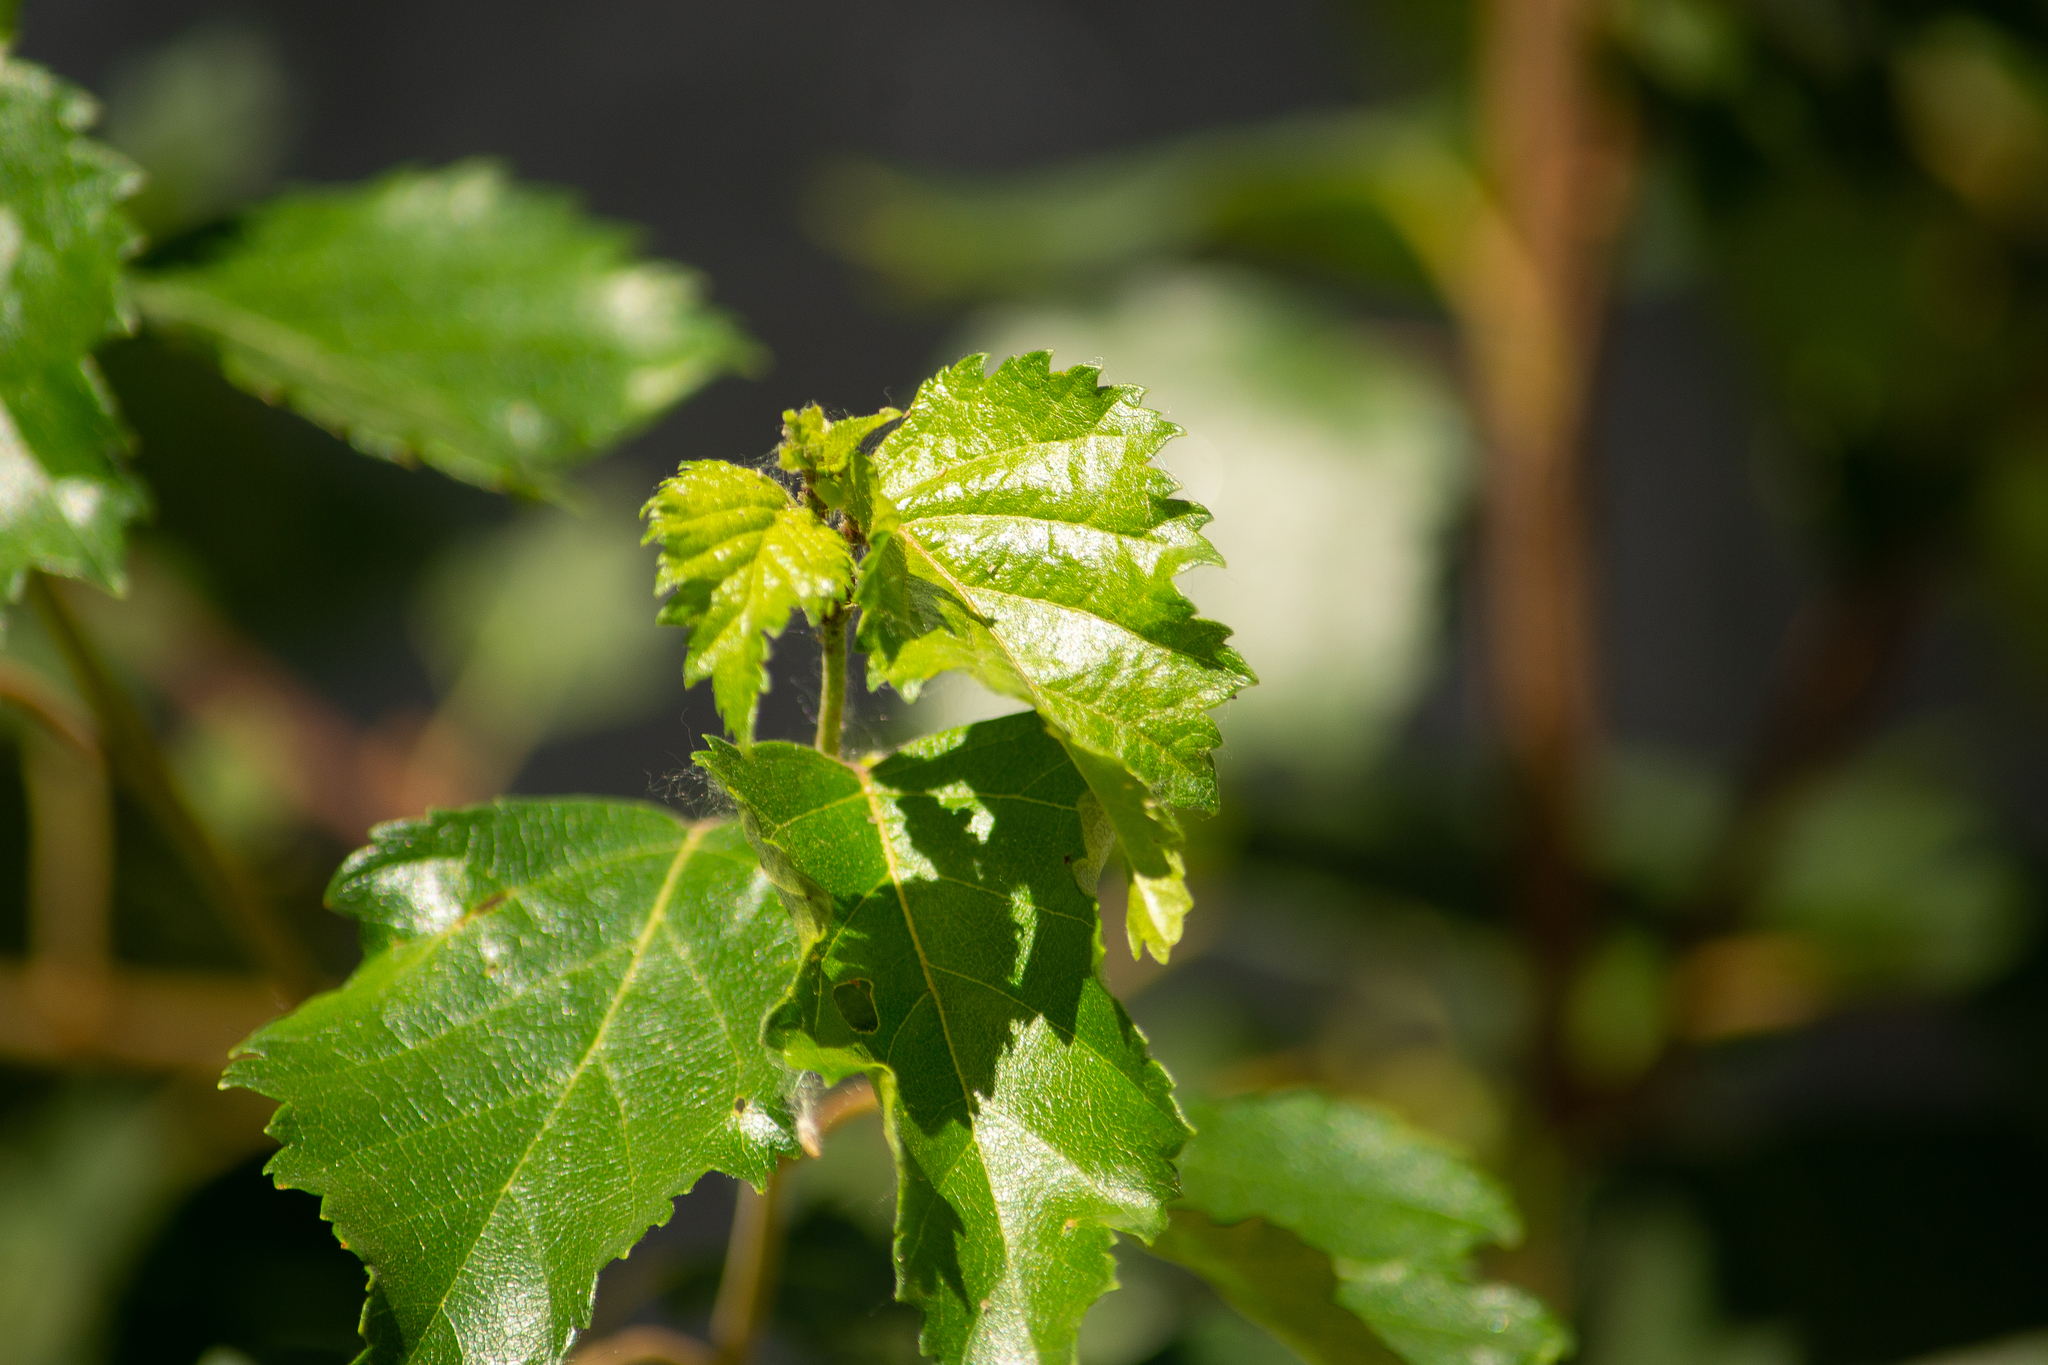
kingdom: Plantae
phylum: Tracheophyta
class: Magnoliopsida
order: Fagales
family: Betulaceae
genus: Betula
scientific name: Betula pubescens
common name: Downy birch
